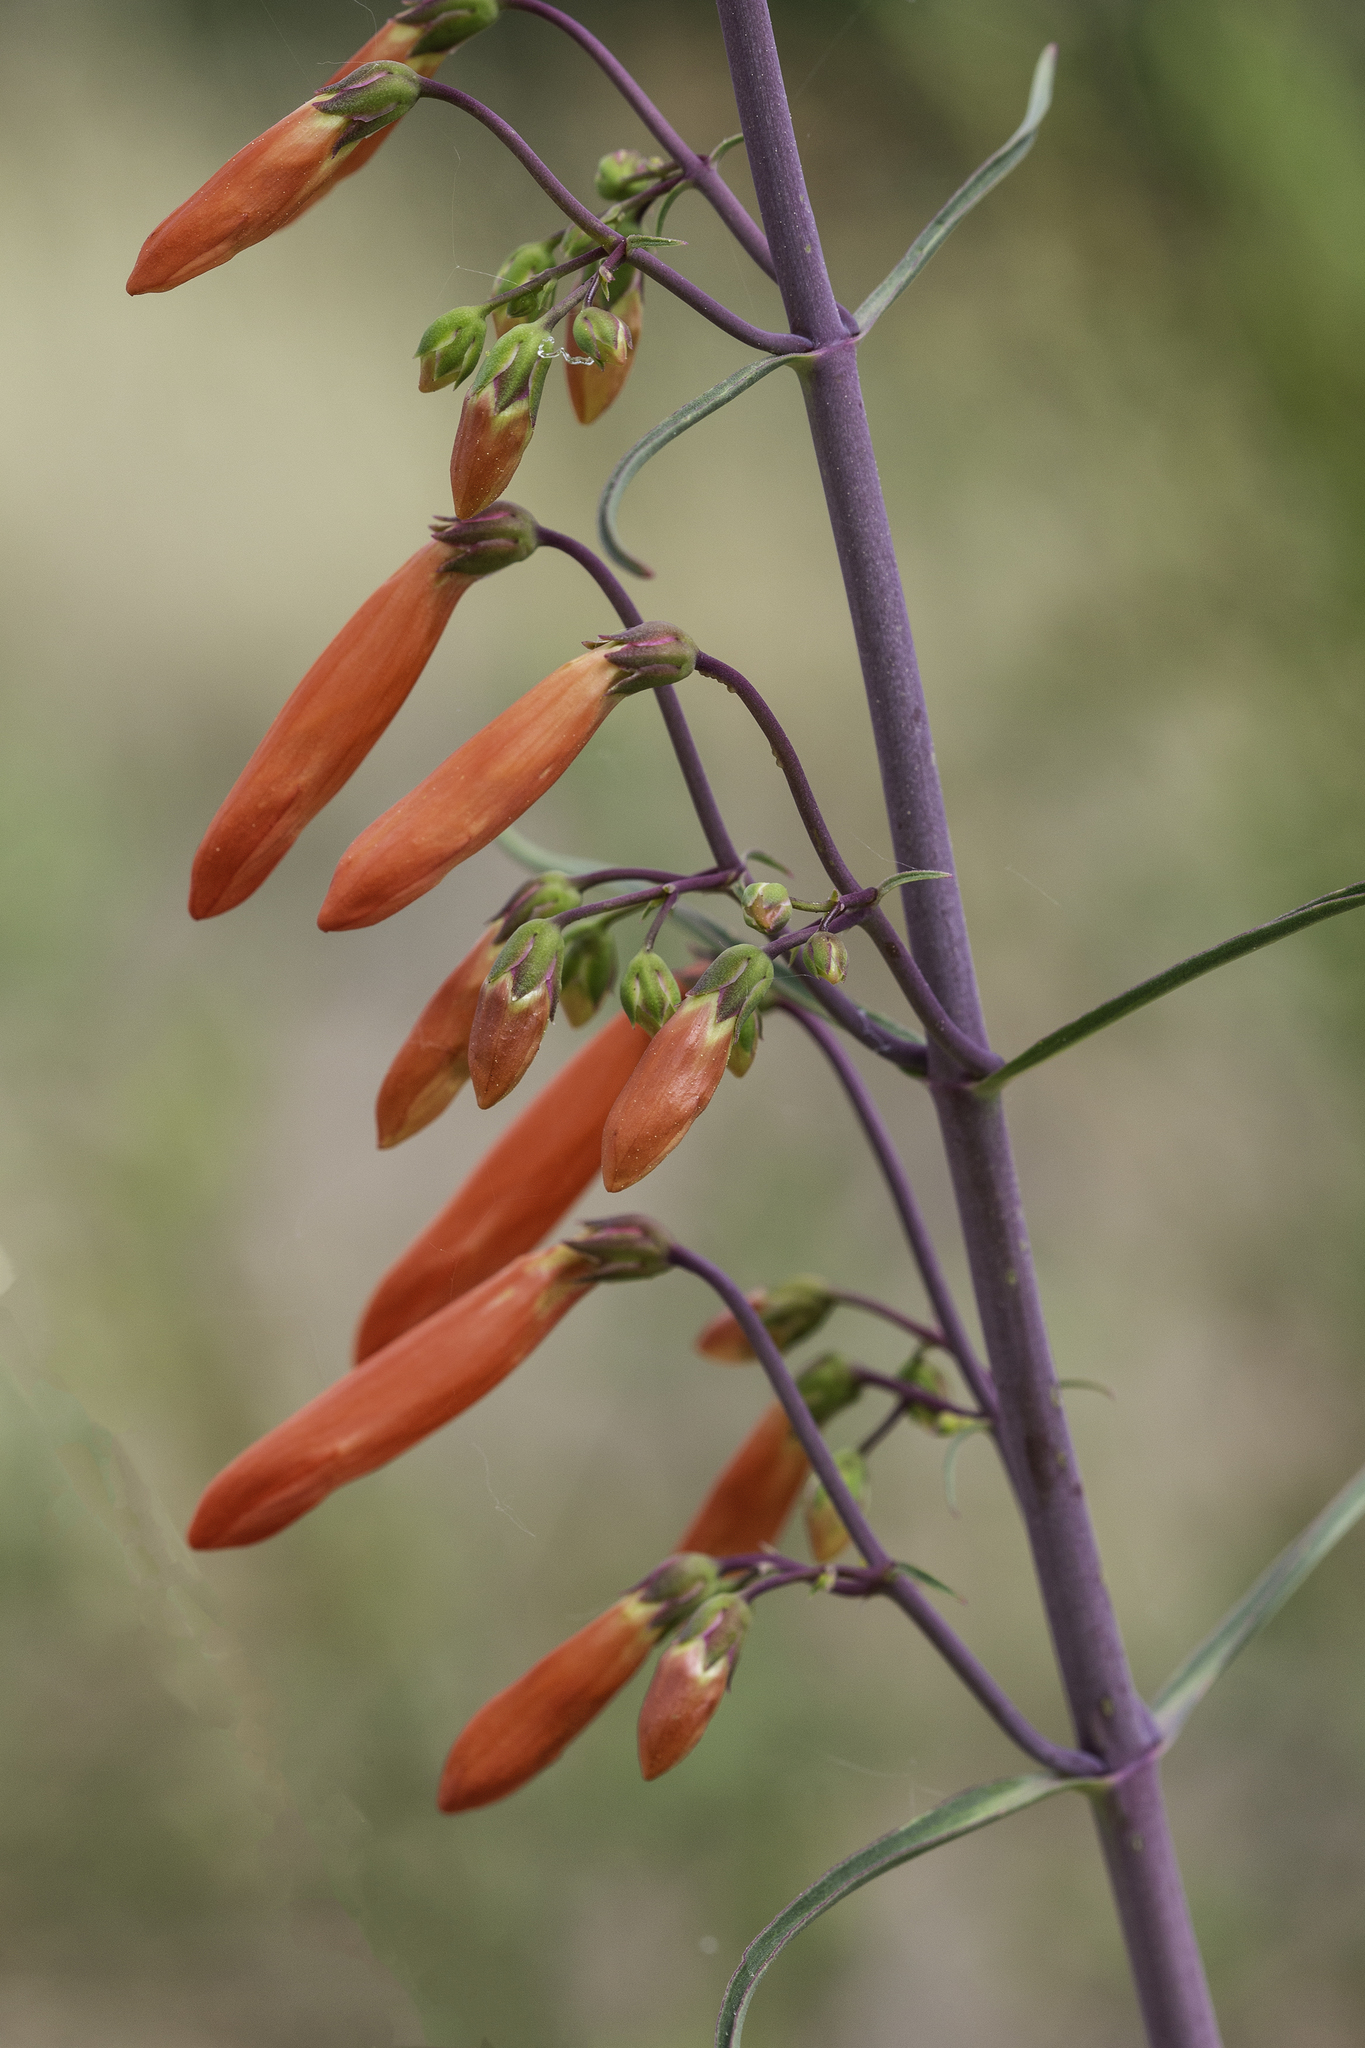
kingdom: Plantae
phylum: Tracheophyta
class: Magnoliopsida
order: Lamiales
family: Plantaginaceae
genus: Penstemon
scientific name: Penstemon barbatus
